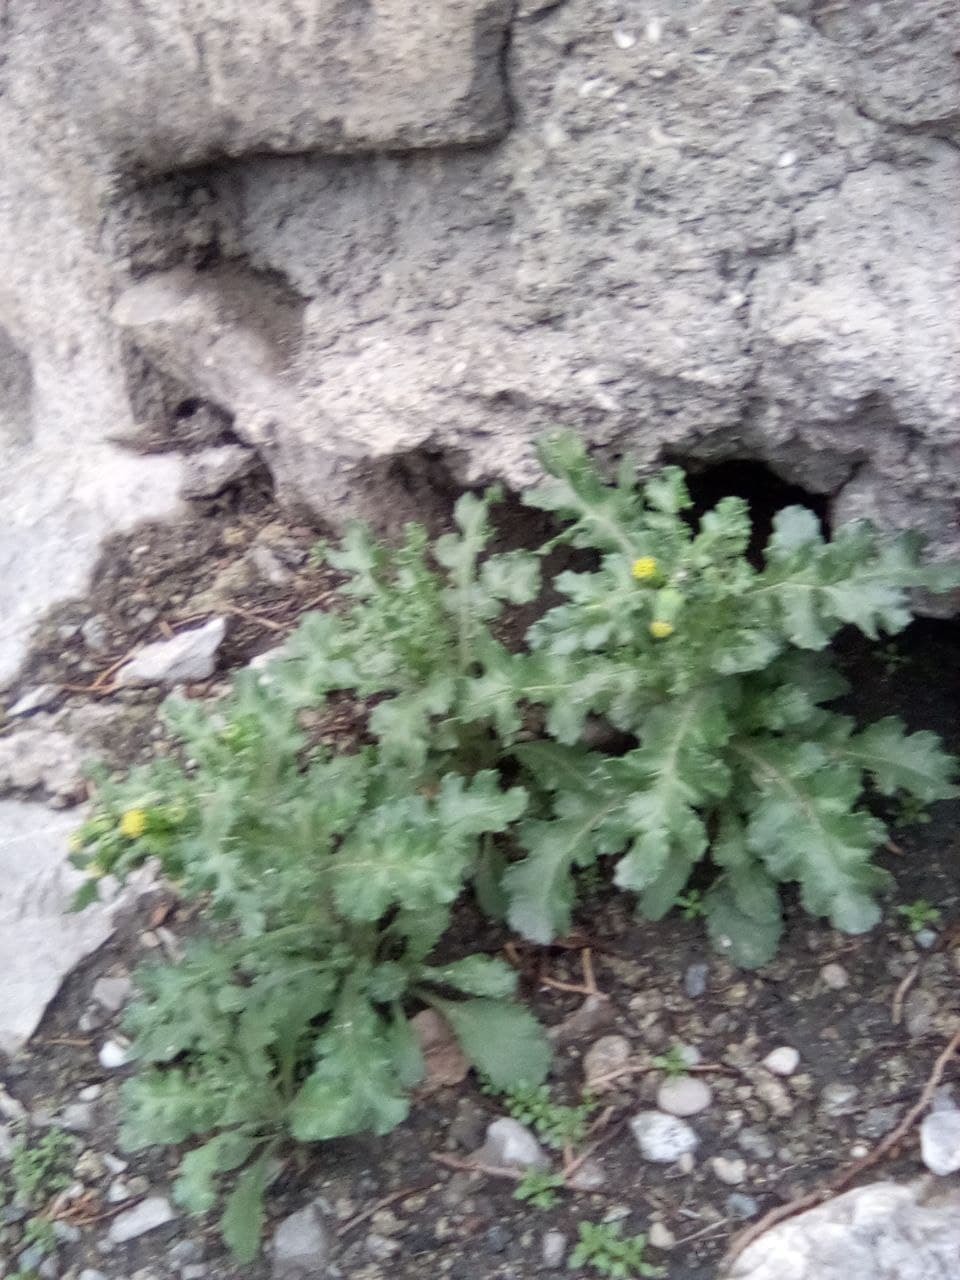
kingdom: Plantae
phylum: Tracheophyta
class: Magnoliopsida
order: Asterales
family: Asteraceae
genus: Senecio
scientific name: Senecio vulgaris
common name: Old-man-in-the-spring
